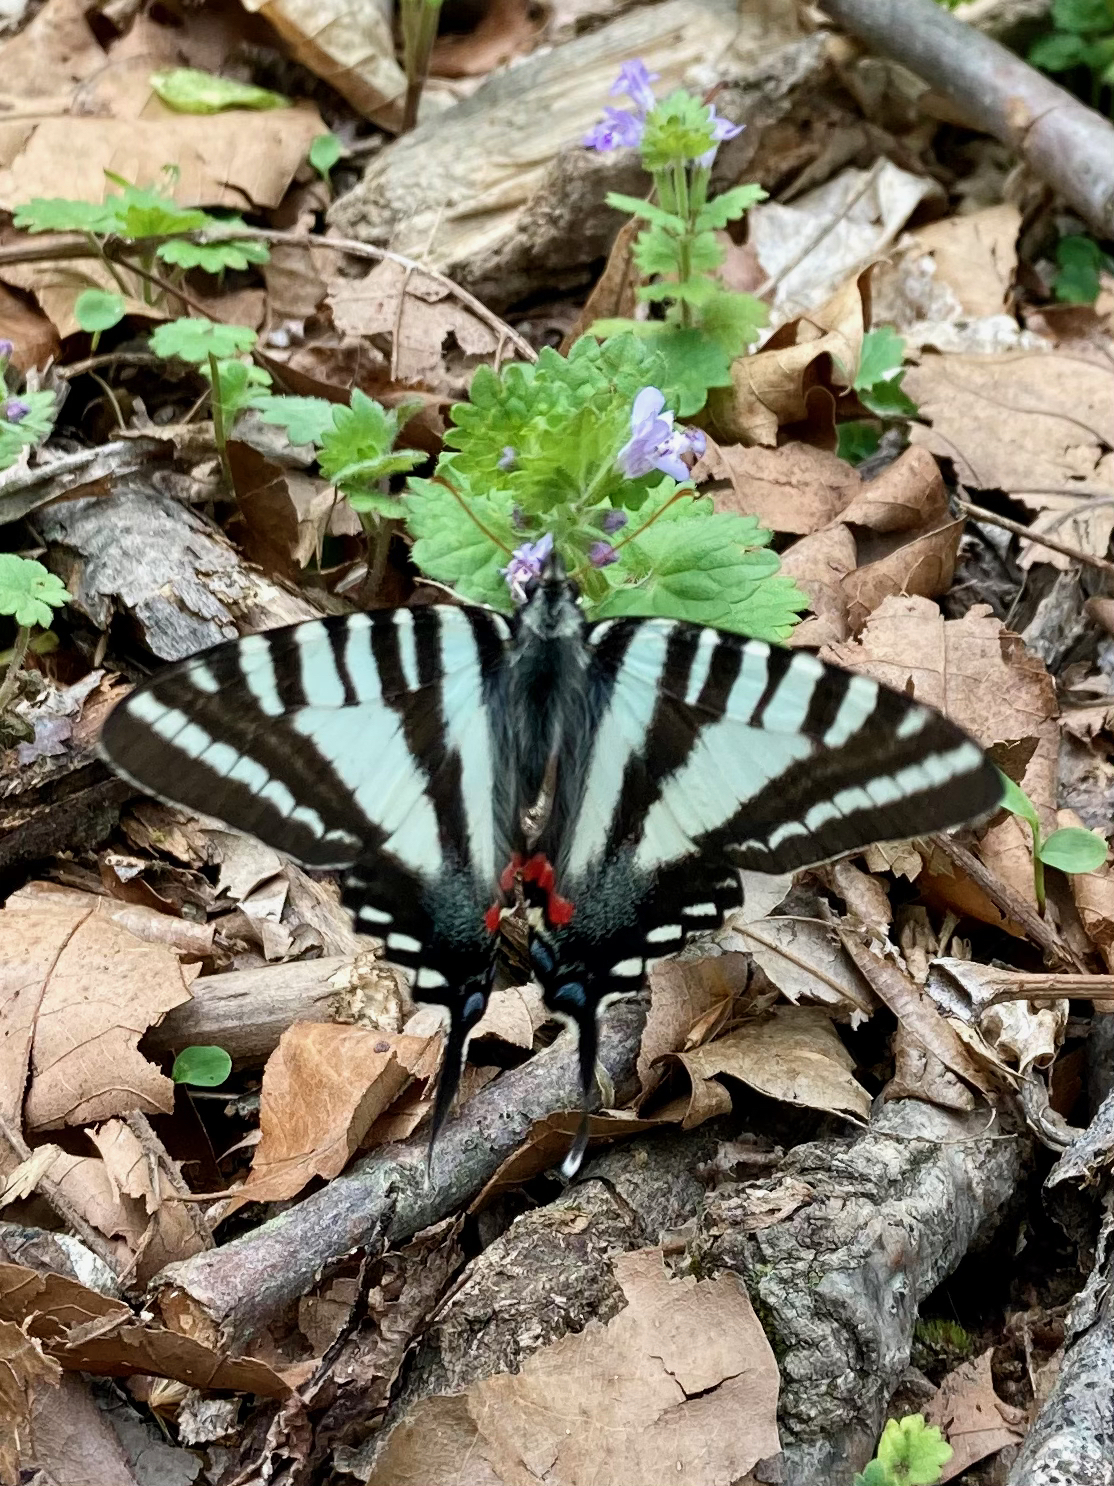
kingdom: Animalia
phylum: Arthropoda
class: Insecta
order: Lepidoptera
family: Papilionidae
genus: Protographium
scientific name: Protographium marcellus
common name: Zebra swallowtail
